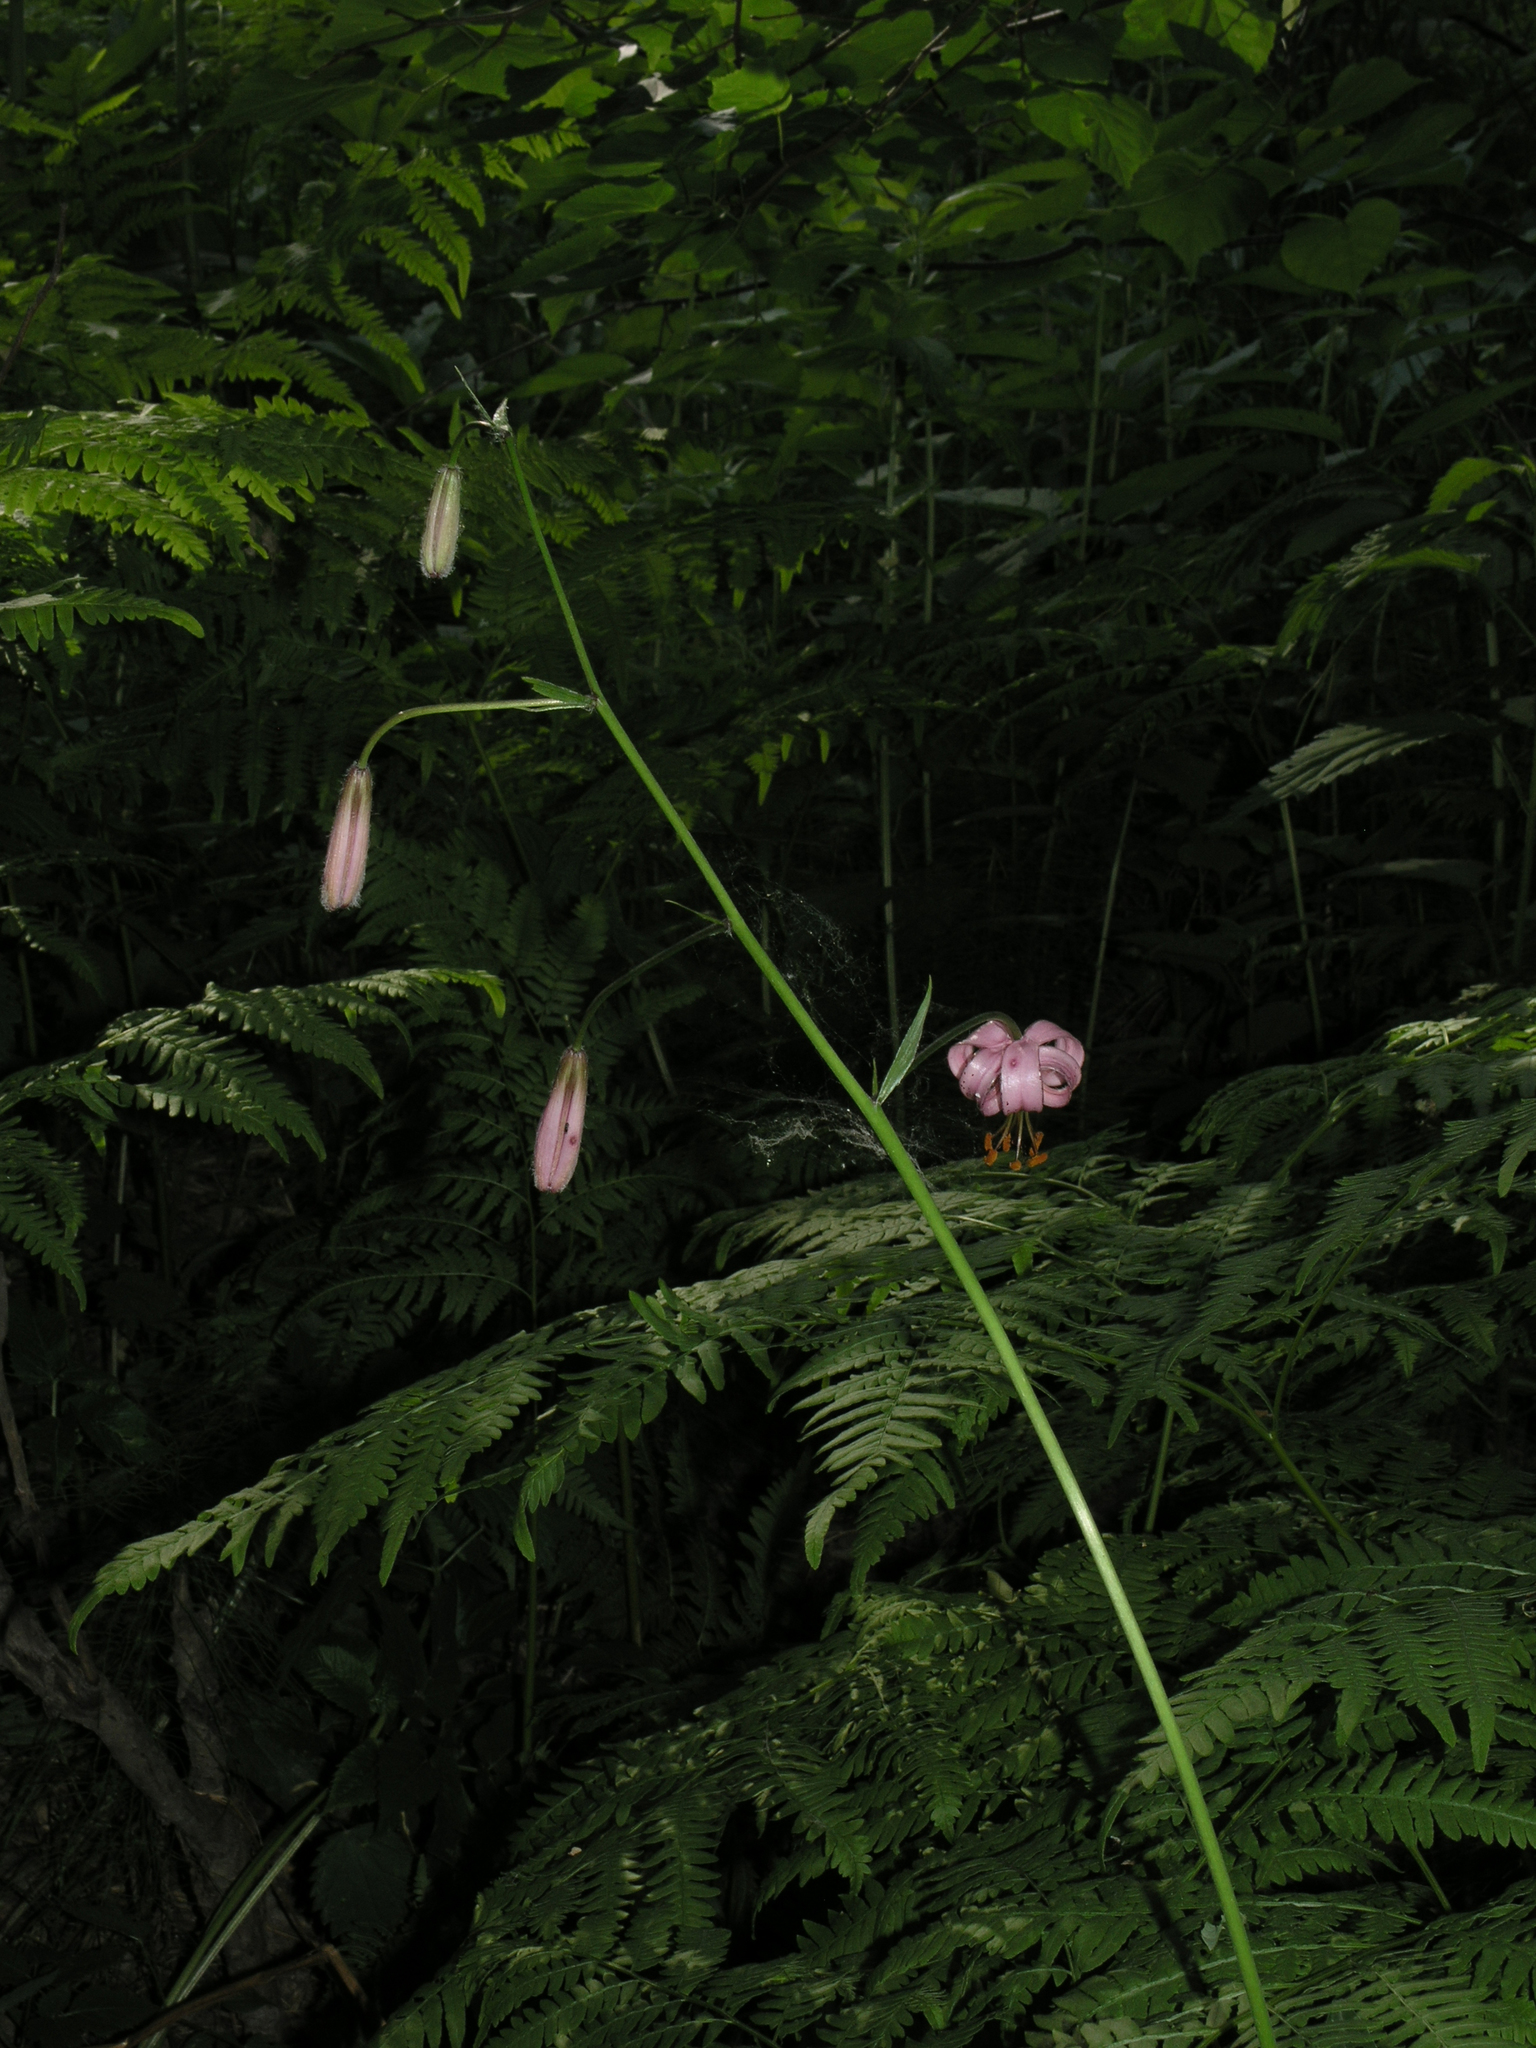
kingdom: Plantae
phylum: Tracheophyta
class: Liliopsida
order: Liliales
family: Liliaceae
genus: Lilium
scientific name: Lilium martagon
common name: Martagon lily
